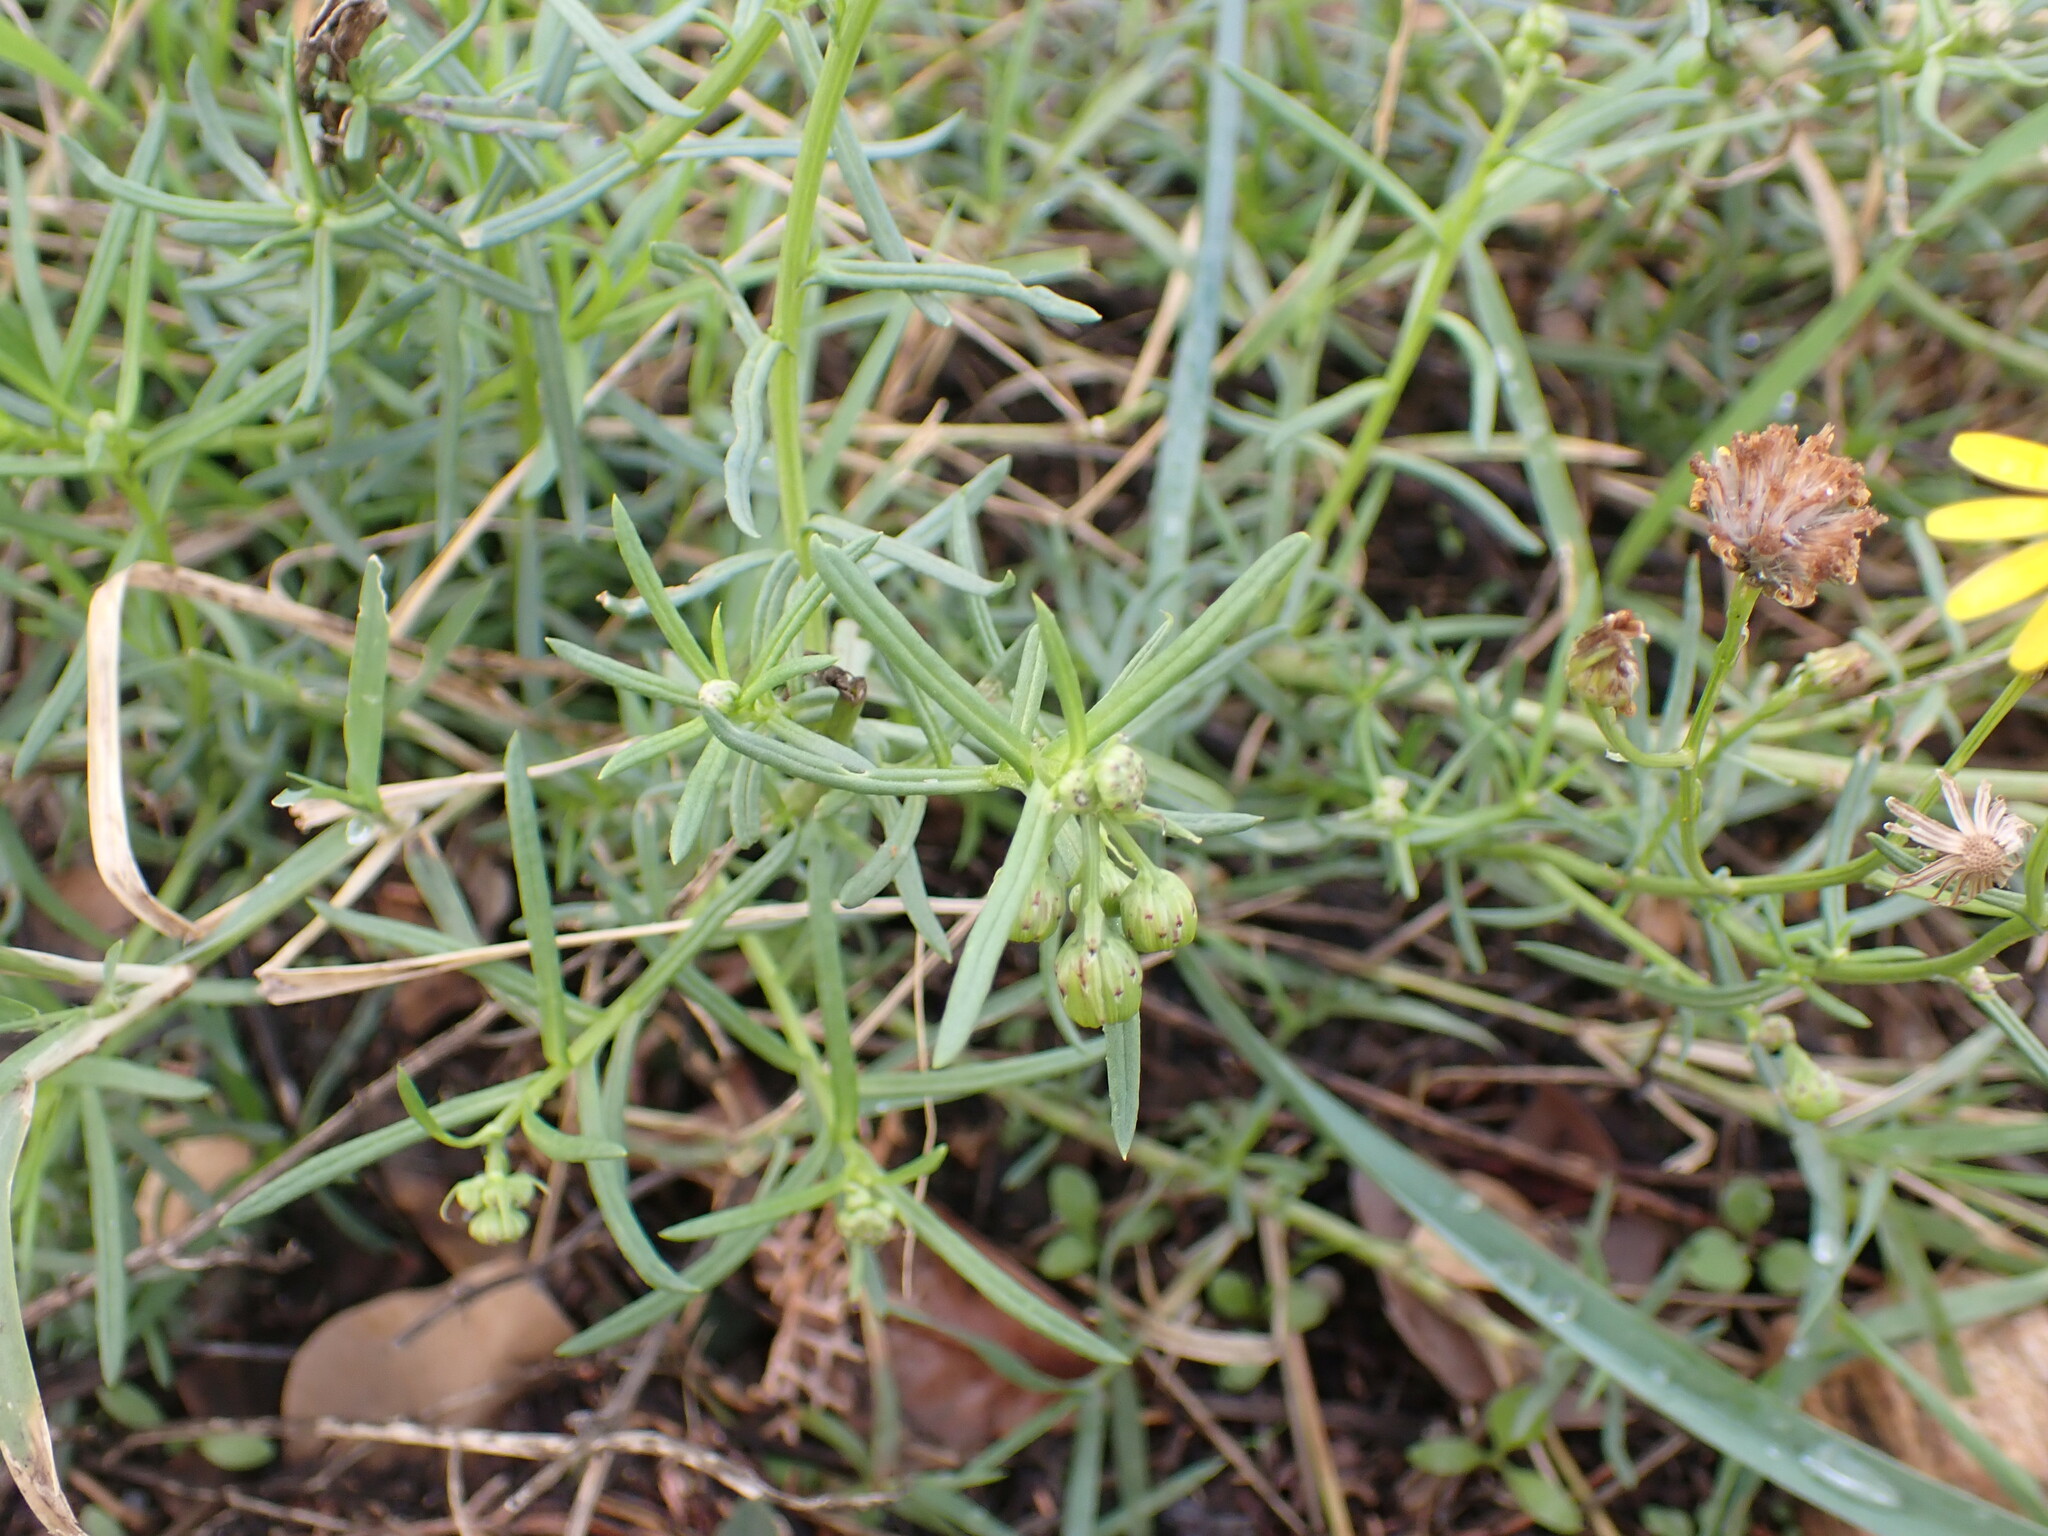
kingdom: Plantae
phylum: Tracheophyta
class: Magnoliopsida
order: Asterales
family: Asteraceae
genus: Senecio
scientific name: Senecio inaequidens
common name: Narrow-leaved ragwort
